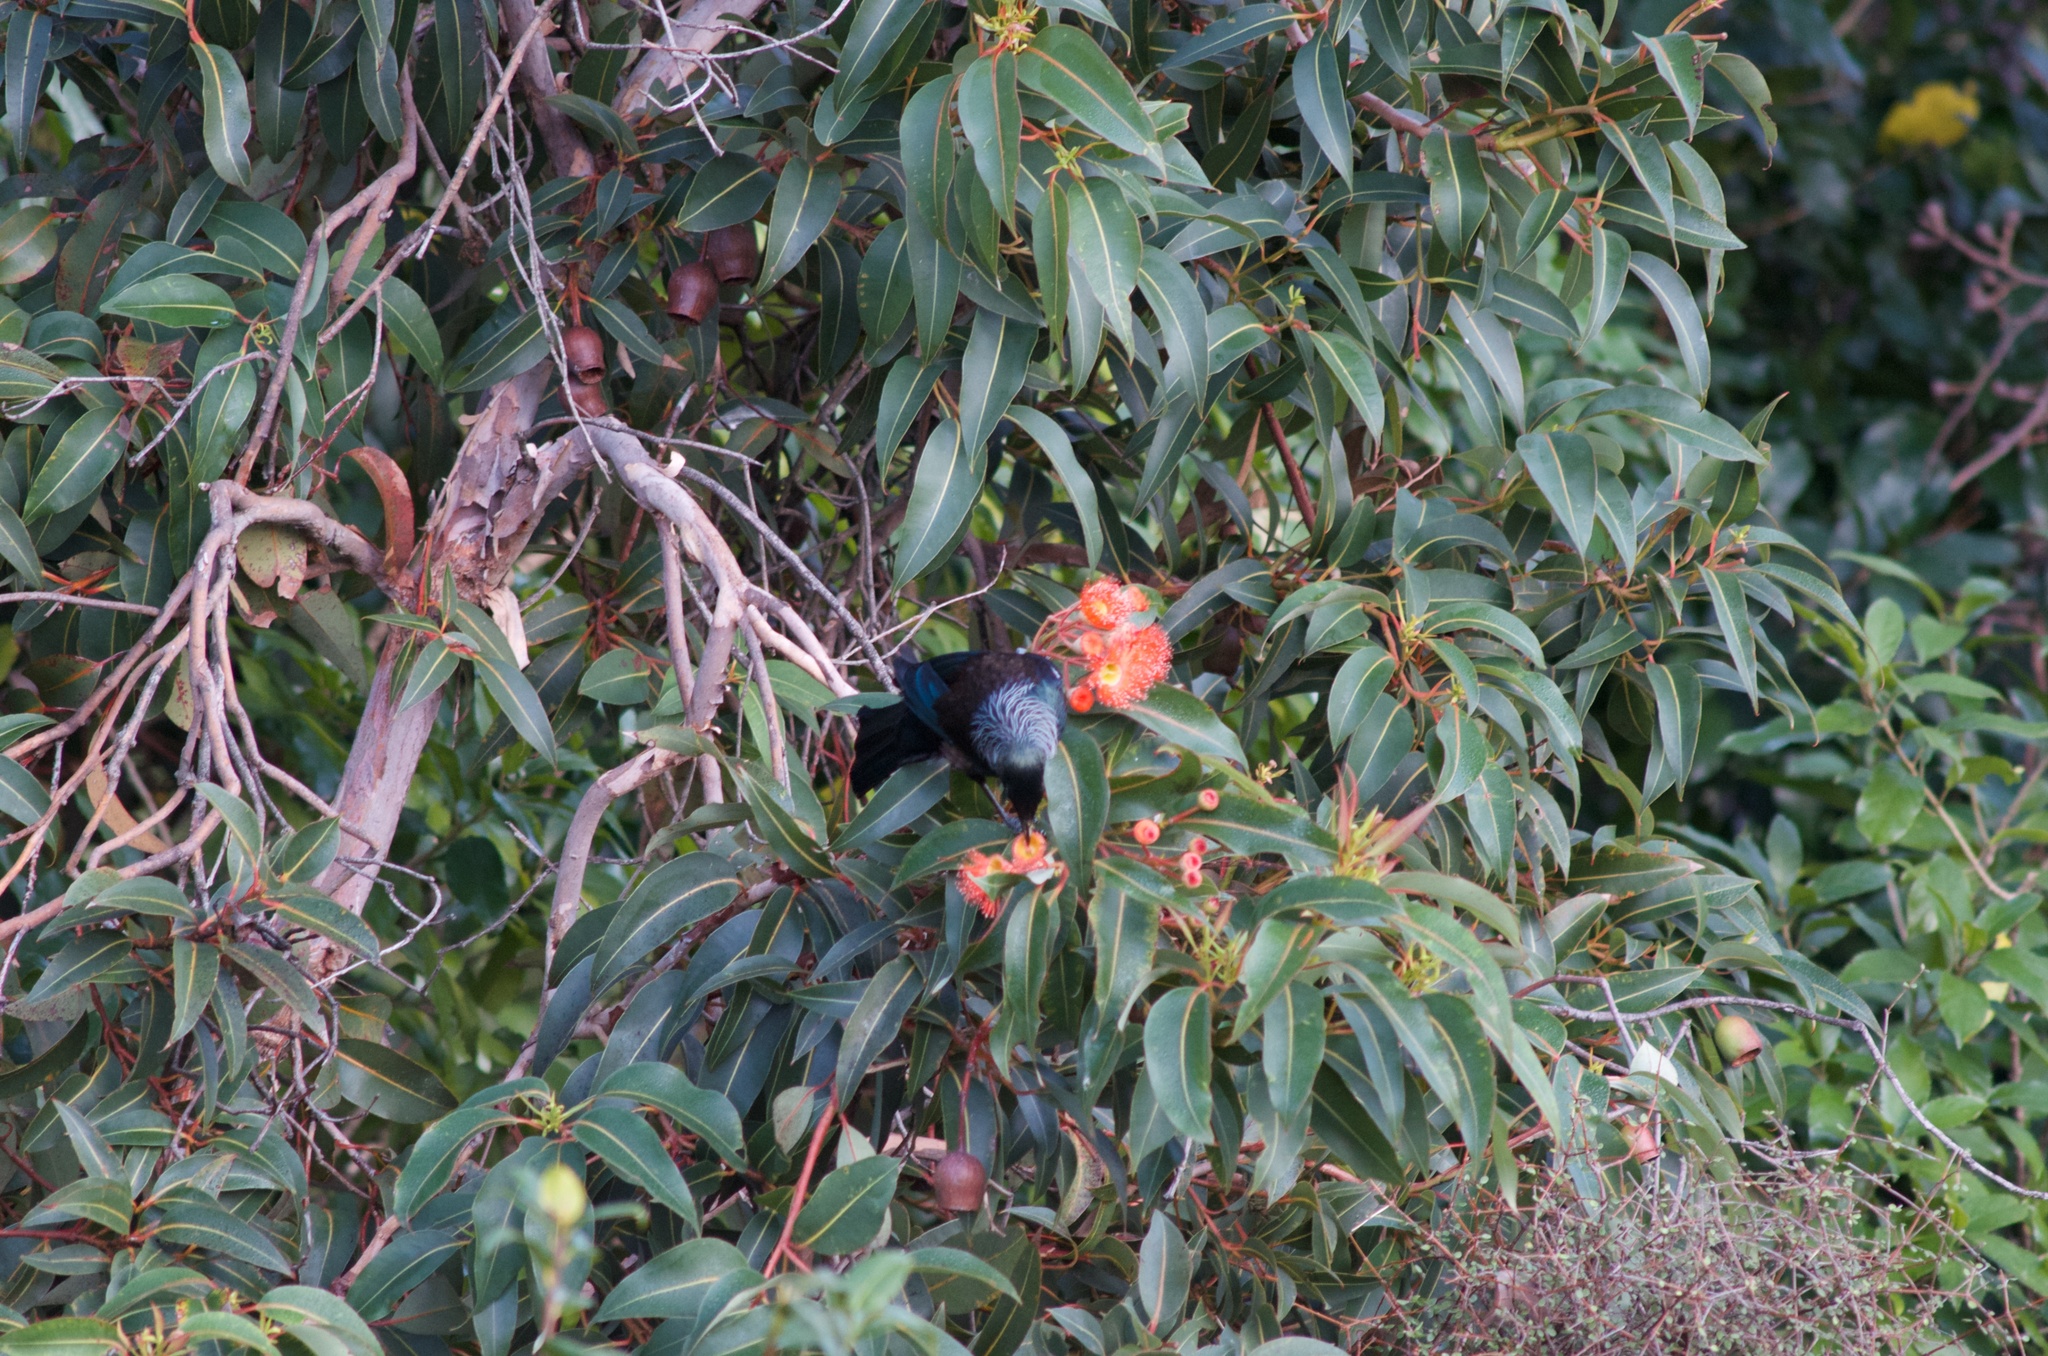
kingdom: Animalia
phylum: Chordata
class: Aves
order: Passeriformes
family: Meliphagidae
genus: Prosthemadera
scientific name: Prosthemadera novaeseelandiae
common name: Tui
